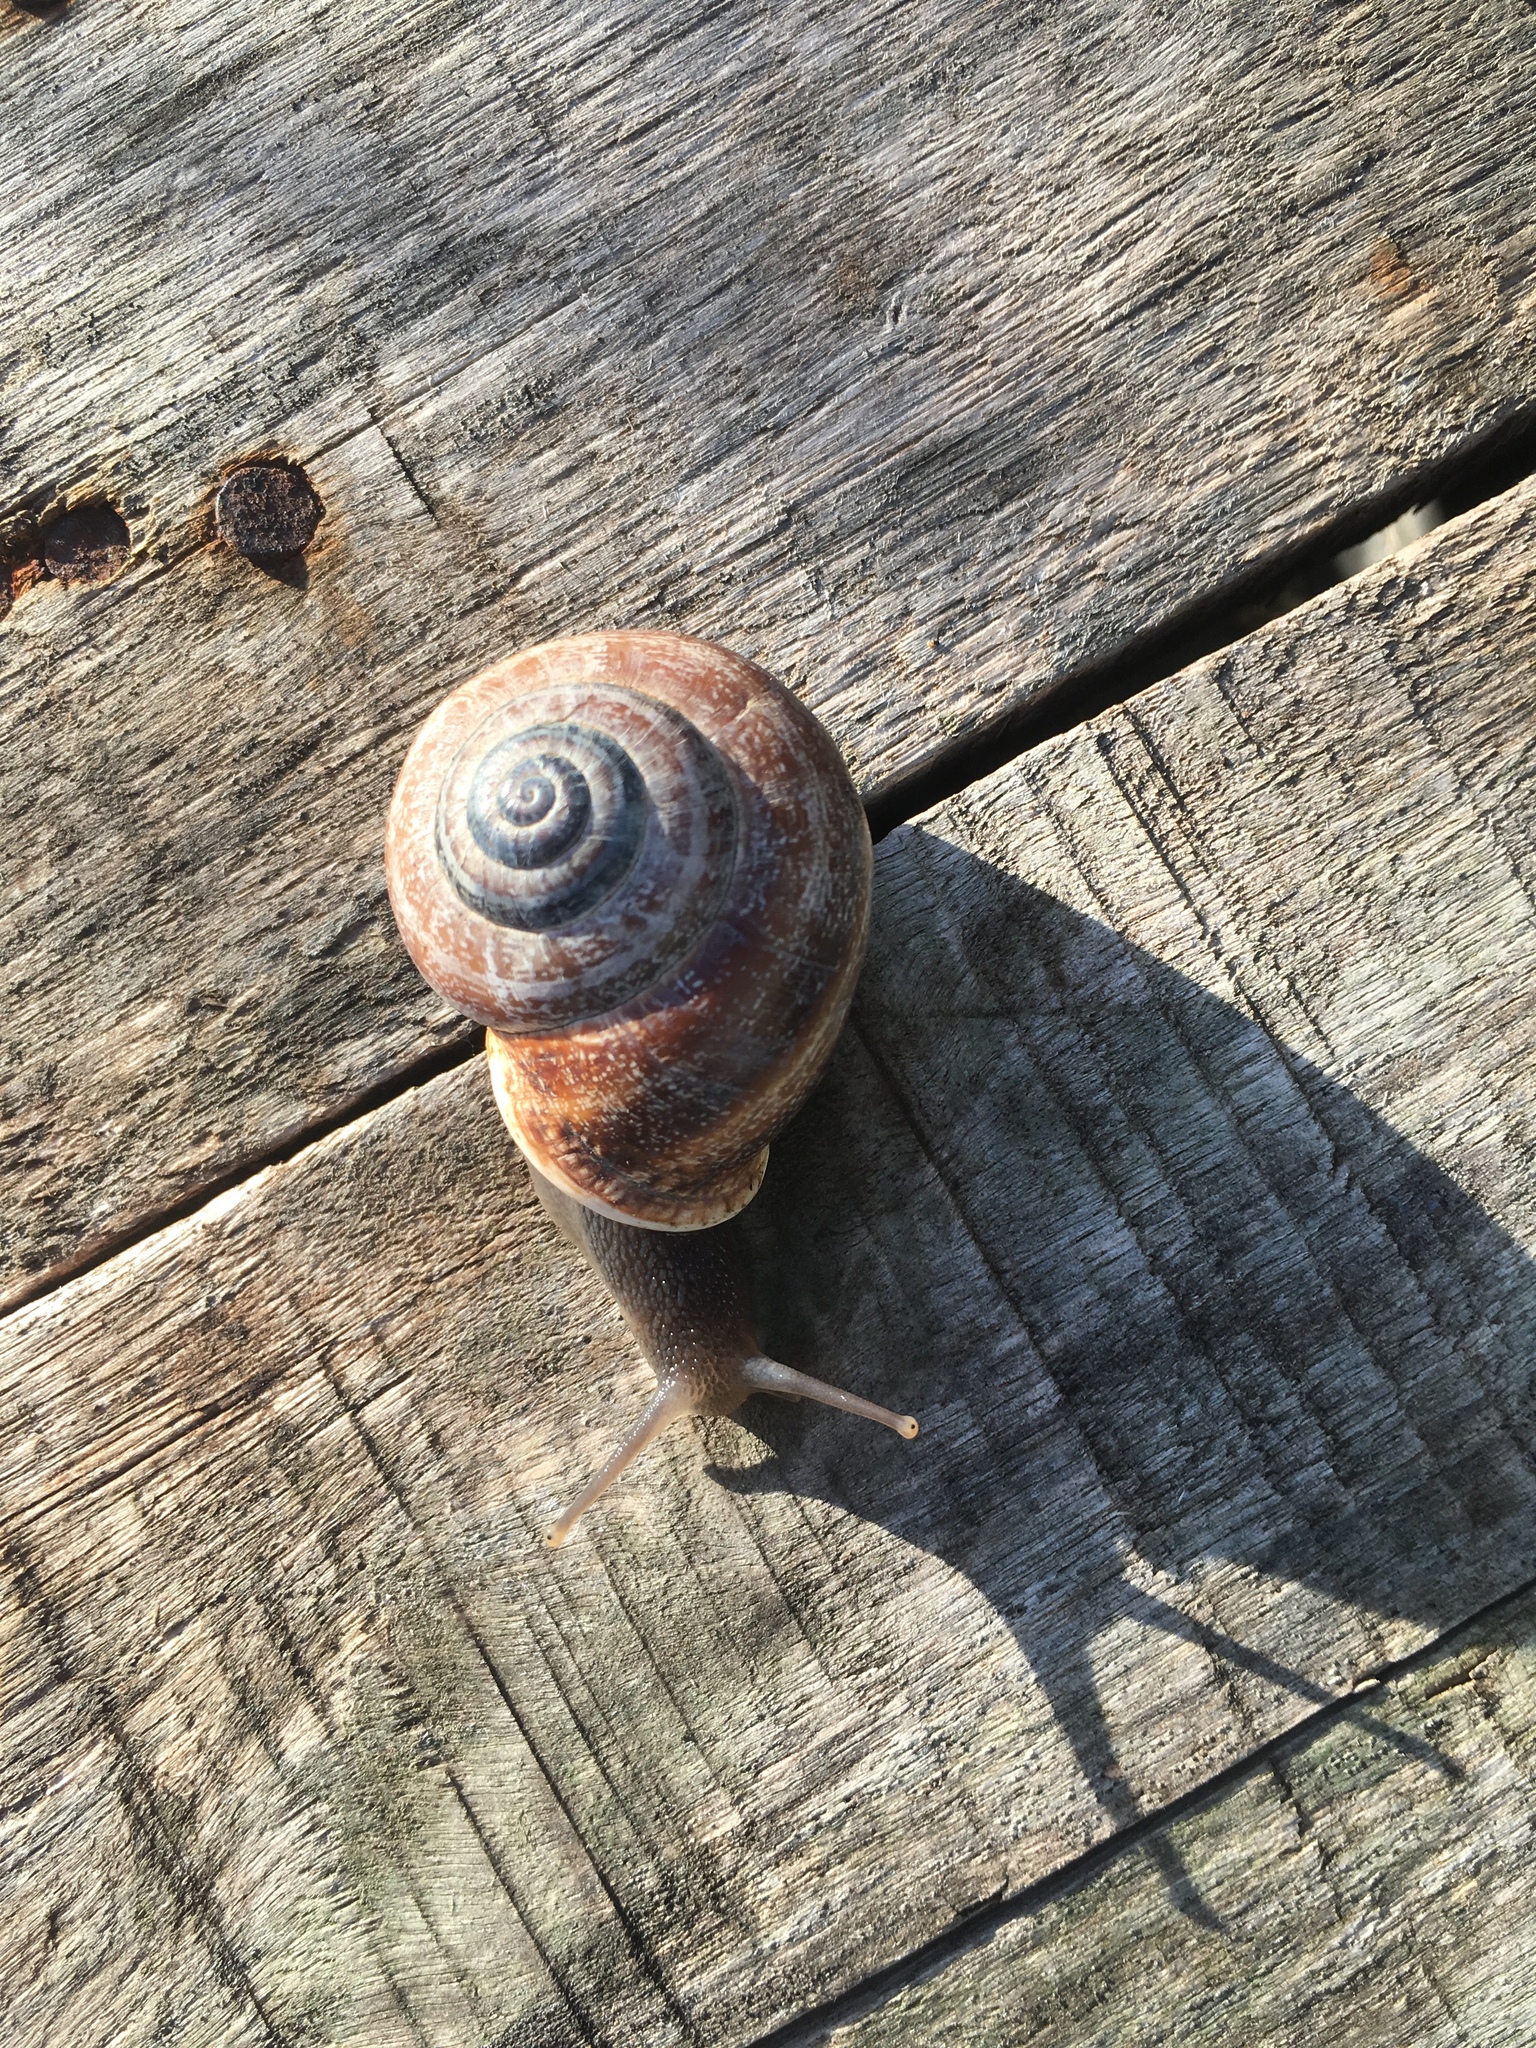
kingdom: Animalia
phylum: Mollusca
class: Gastropoda
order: Stylommatophora
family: Helicidae
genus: Otala
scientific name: Otala punctata
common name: Milk snail
